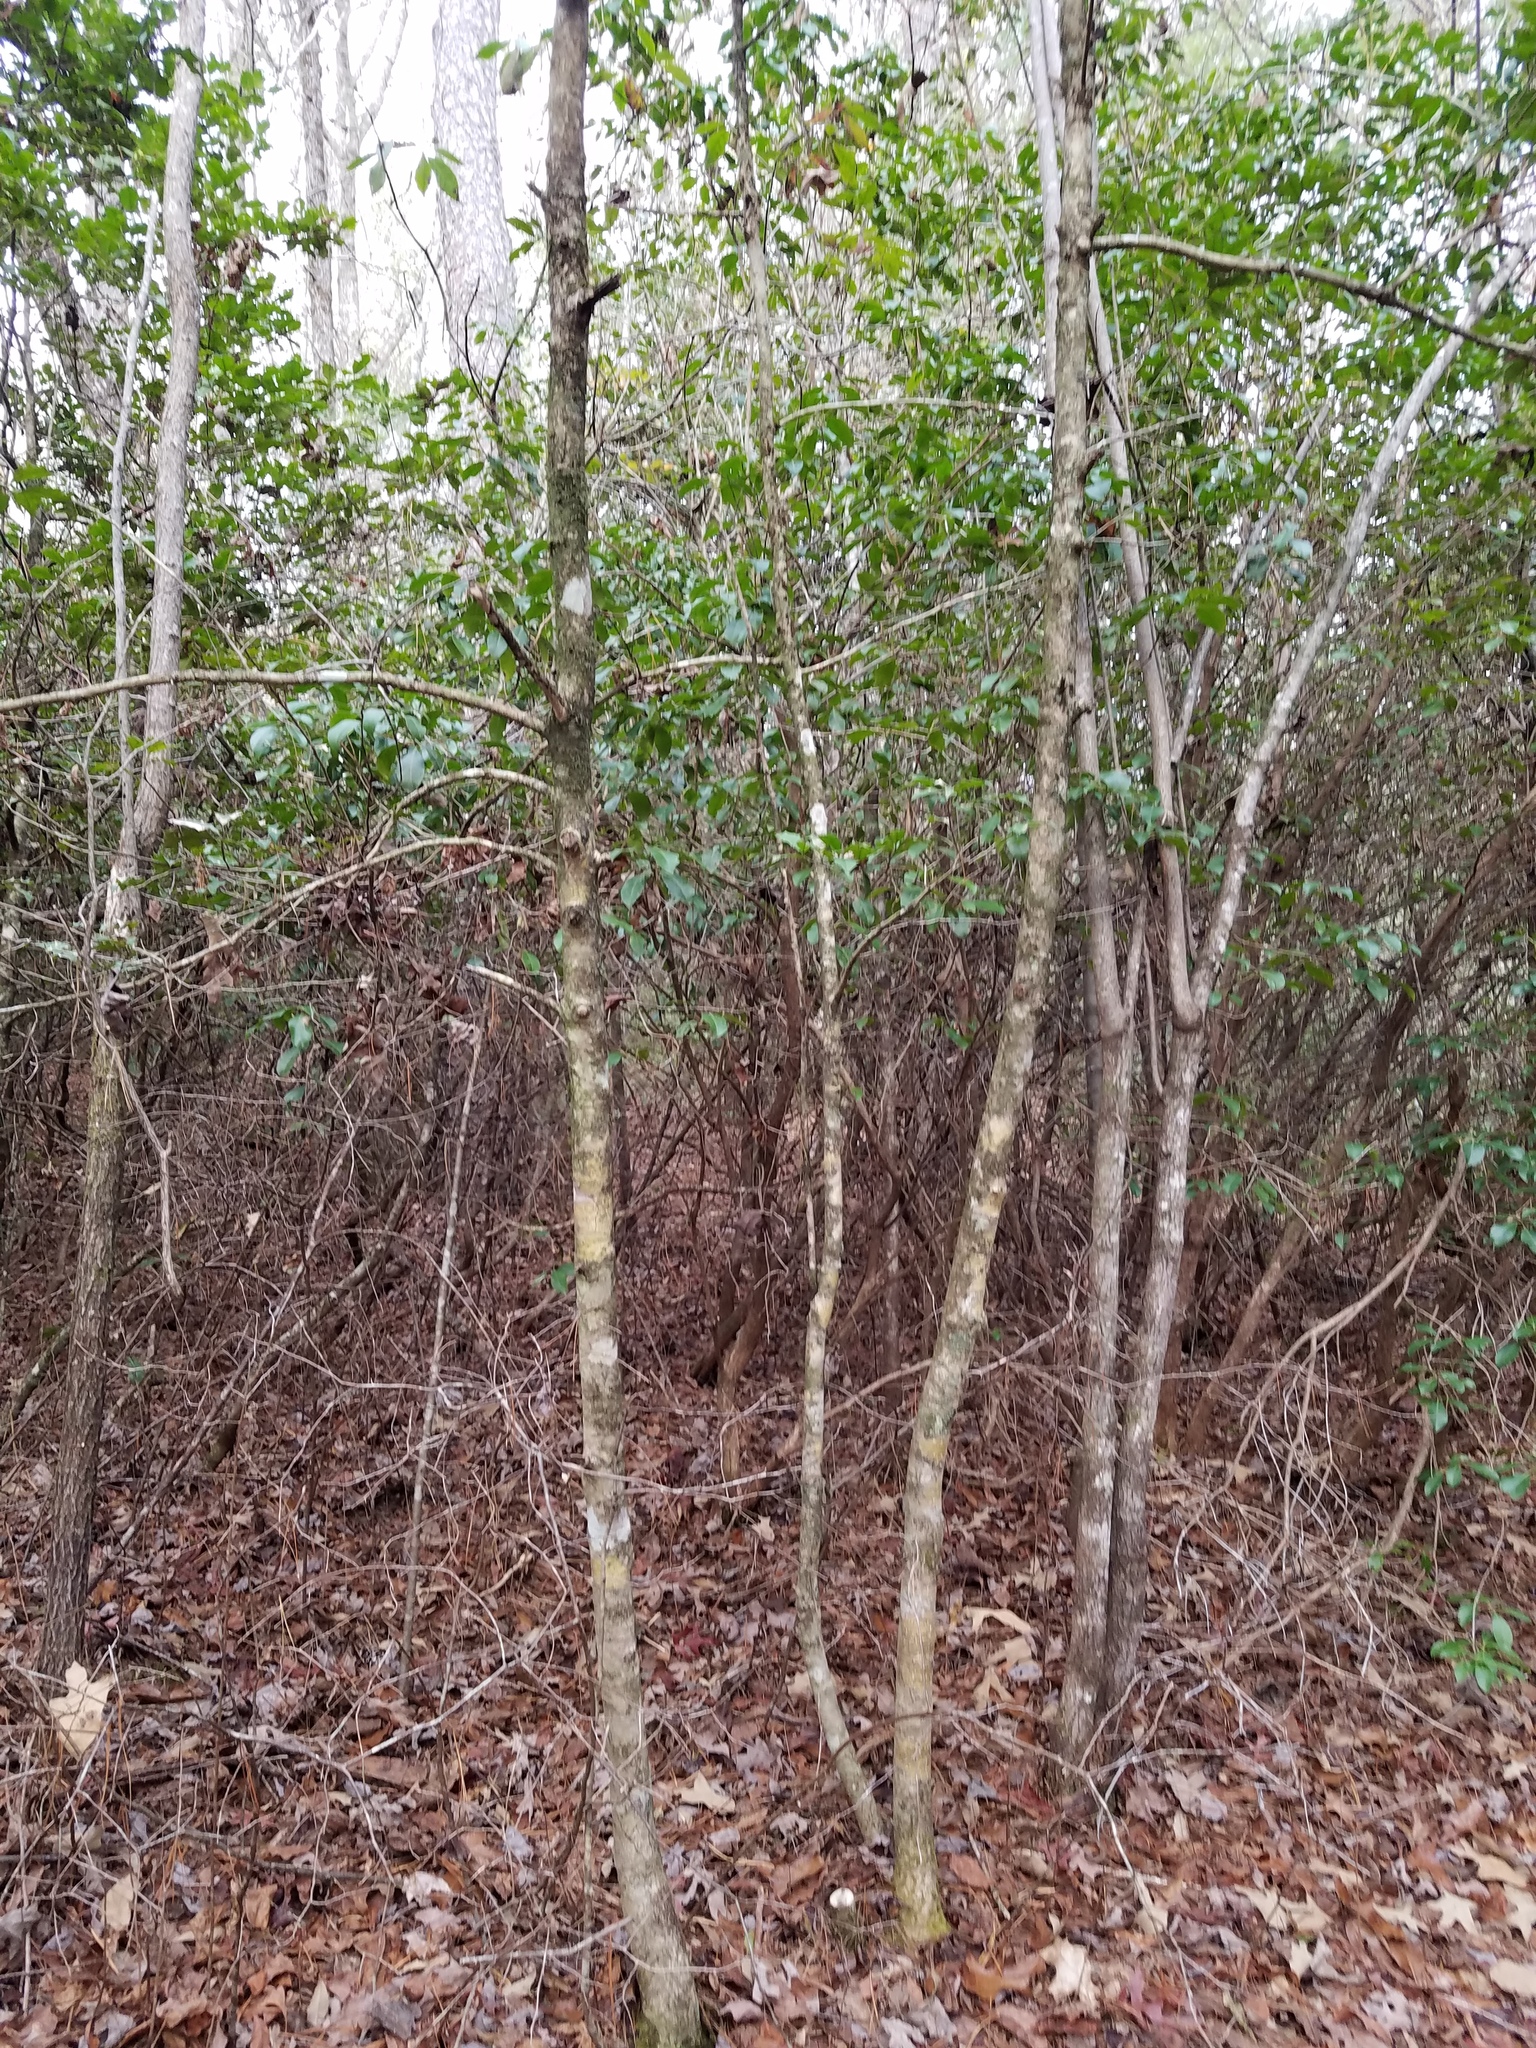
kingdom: Plantae
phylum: Tracheophyta
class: Magnoliopsida
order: Aquifoliales
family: Aquifoliaceae
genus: Ilex
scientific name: Ilex opaca
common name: American holly
